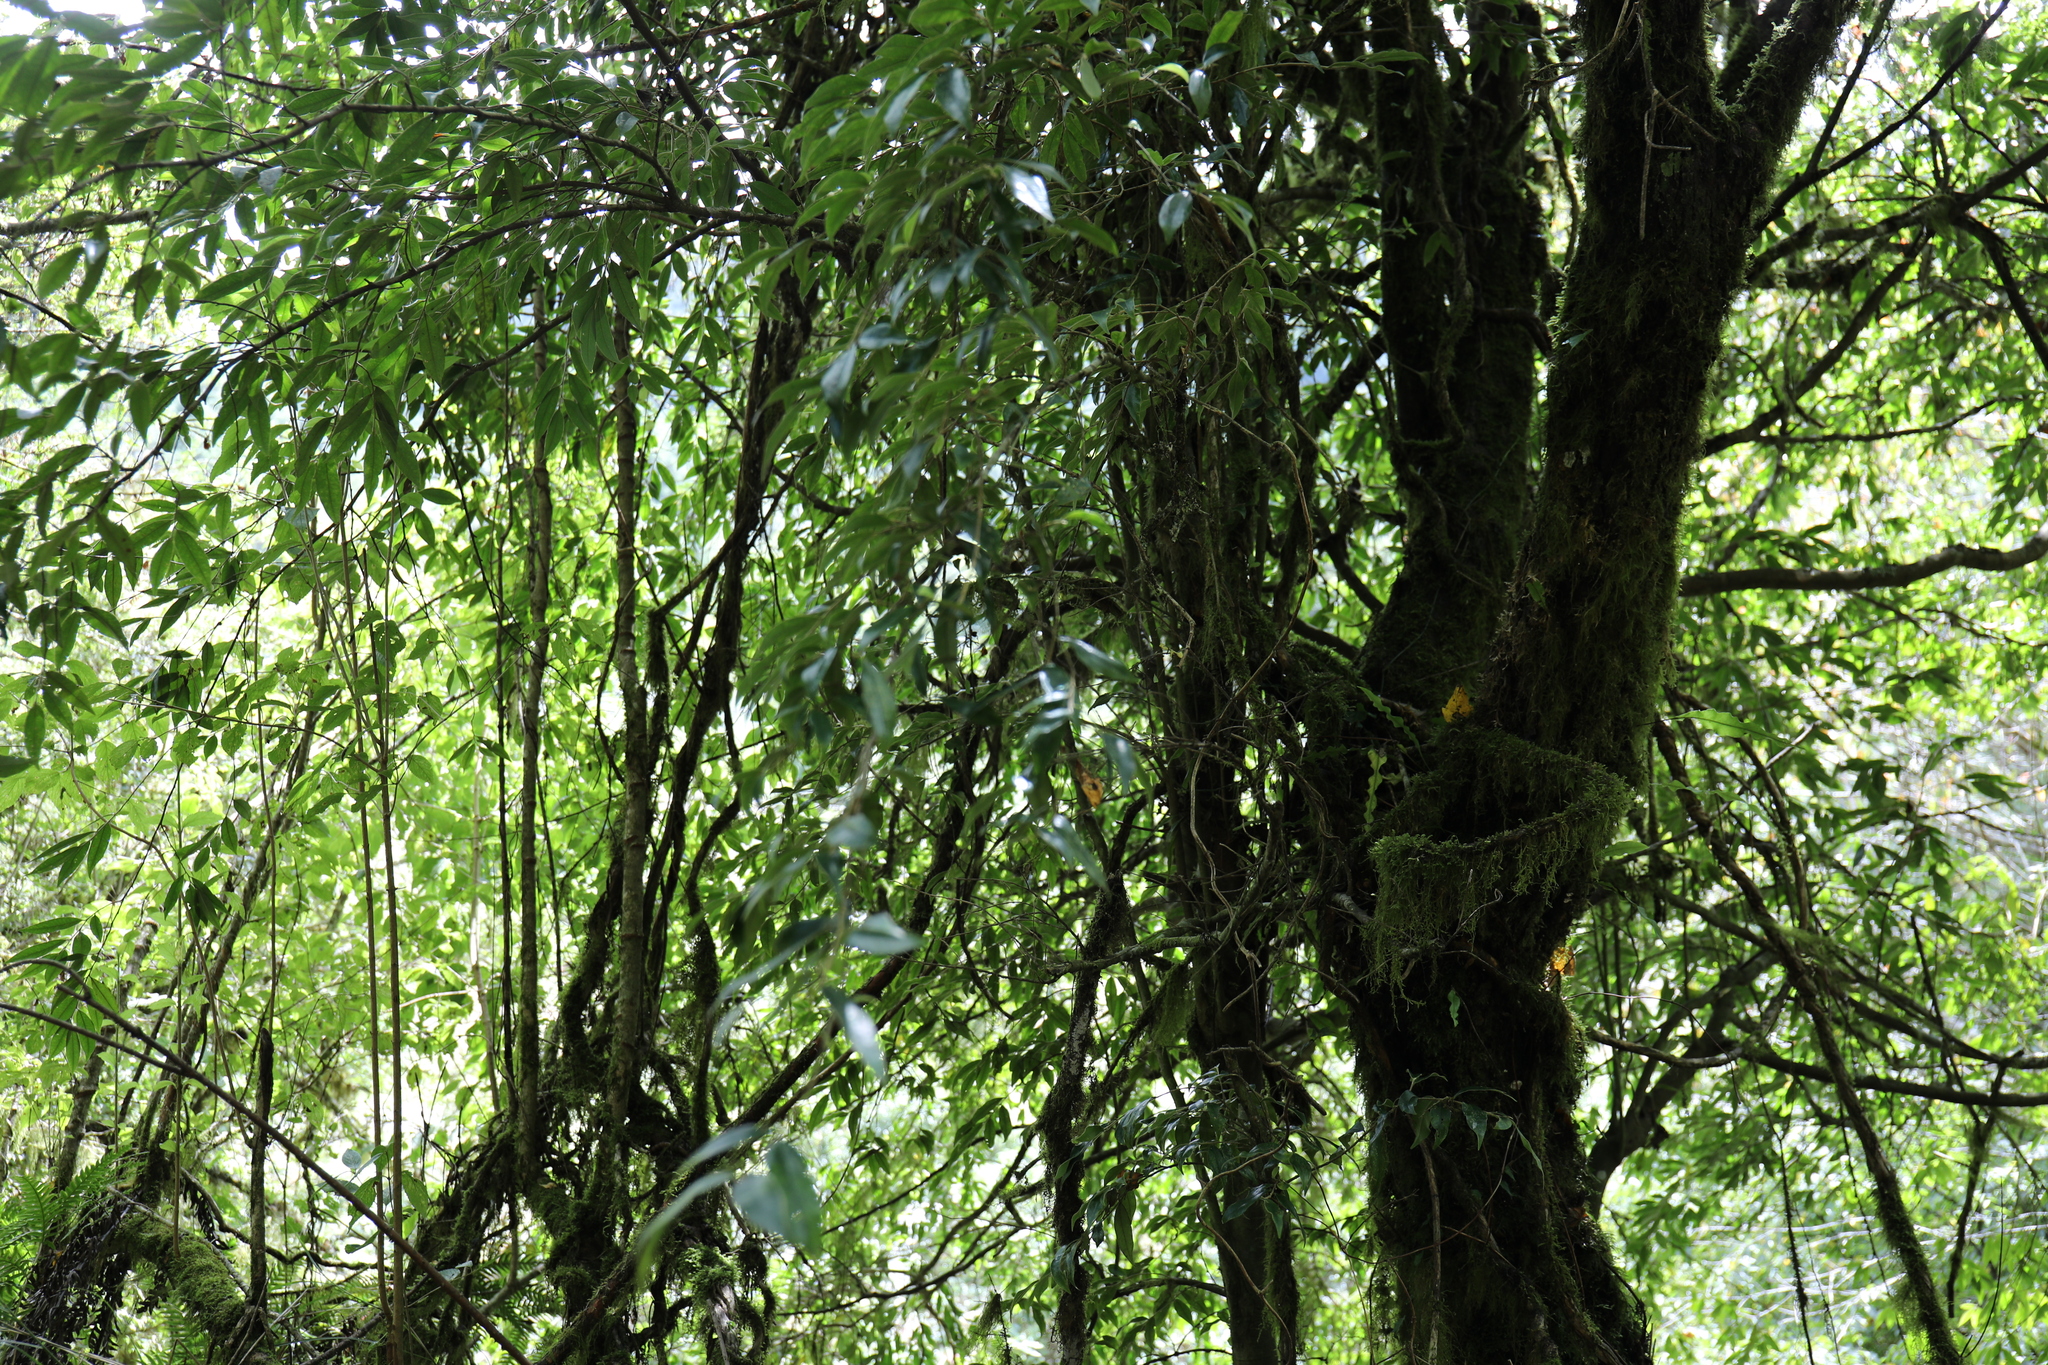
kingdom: Plantae
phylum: Tracheophyta
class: Magnoliopsida
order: Ericales
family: Pentaphylacaceae
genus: Adinandra
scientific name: Adinandra lasiostyla
